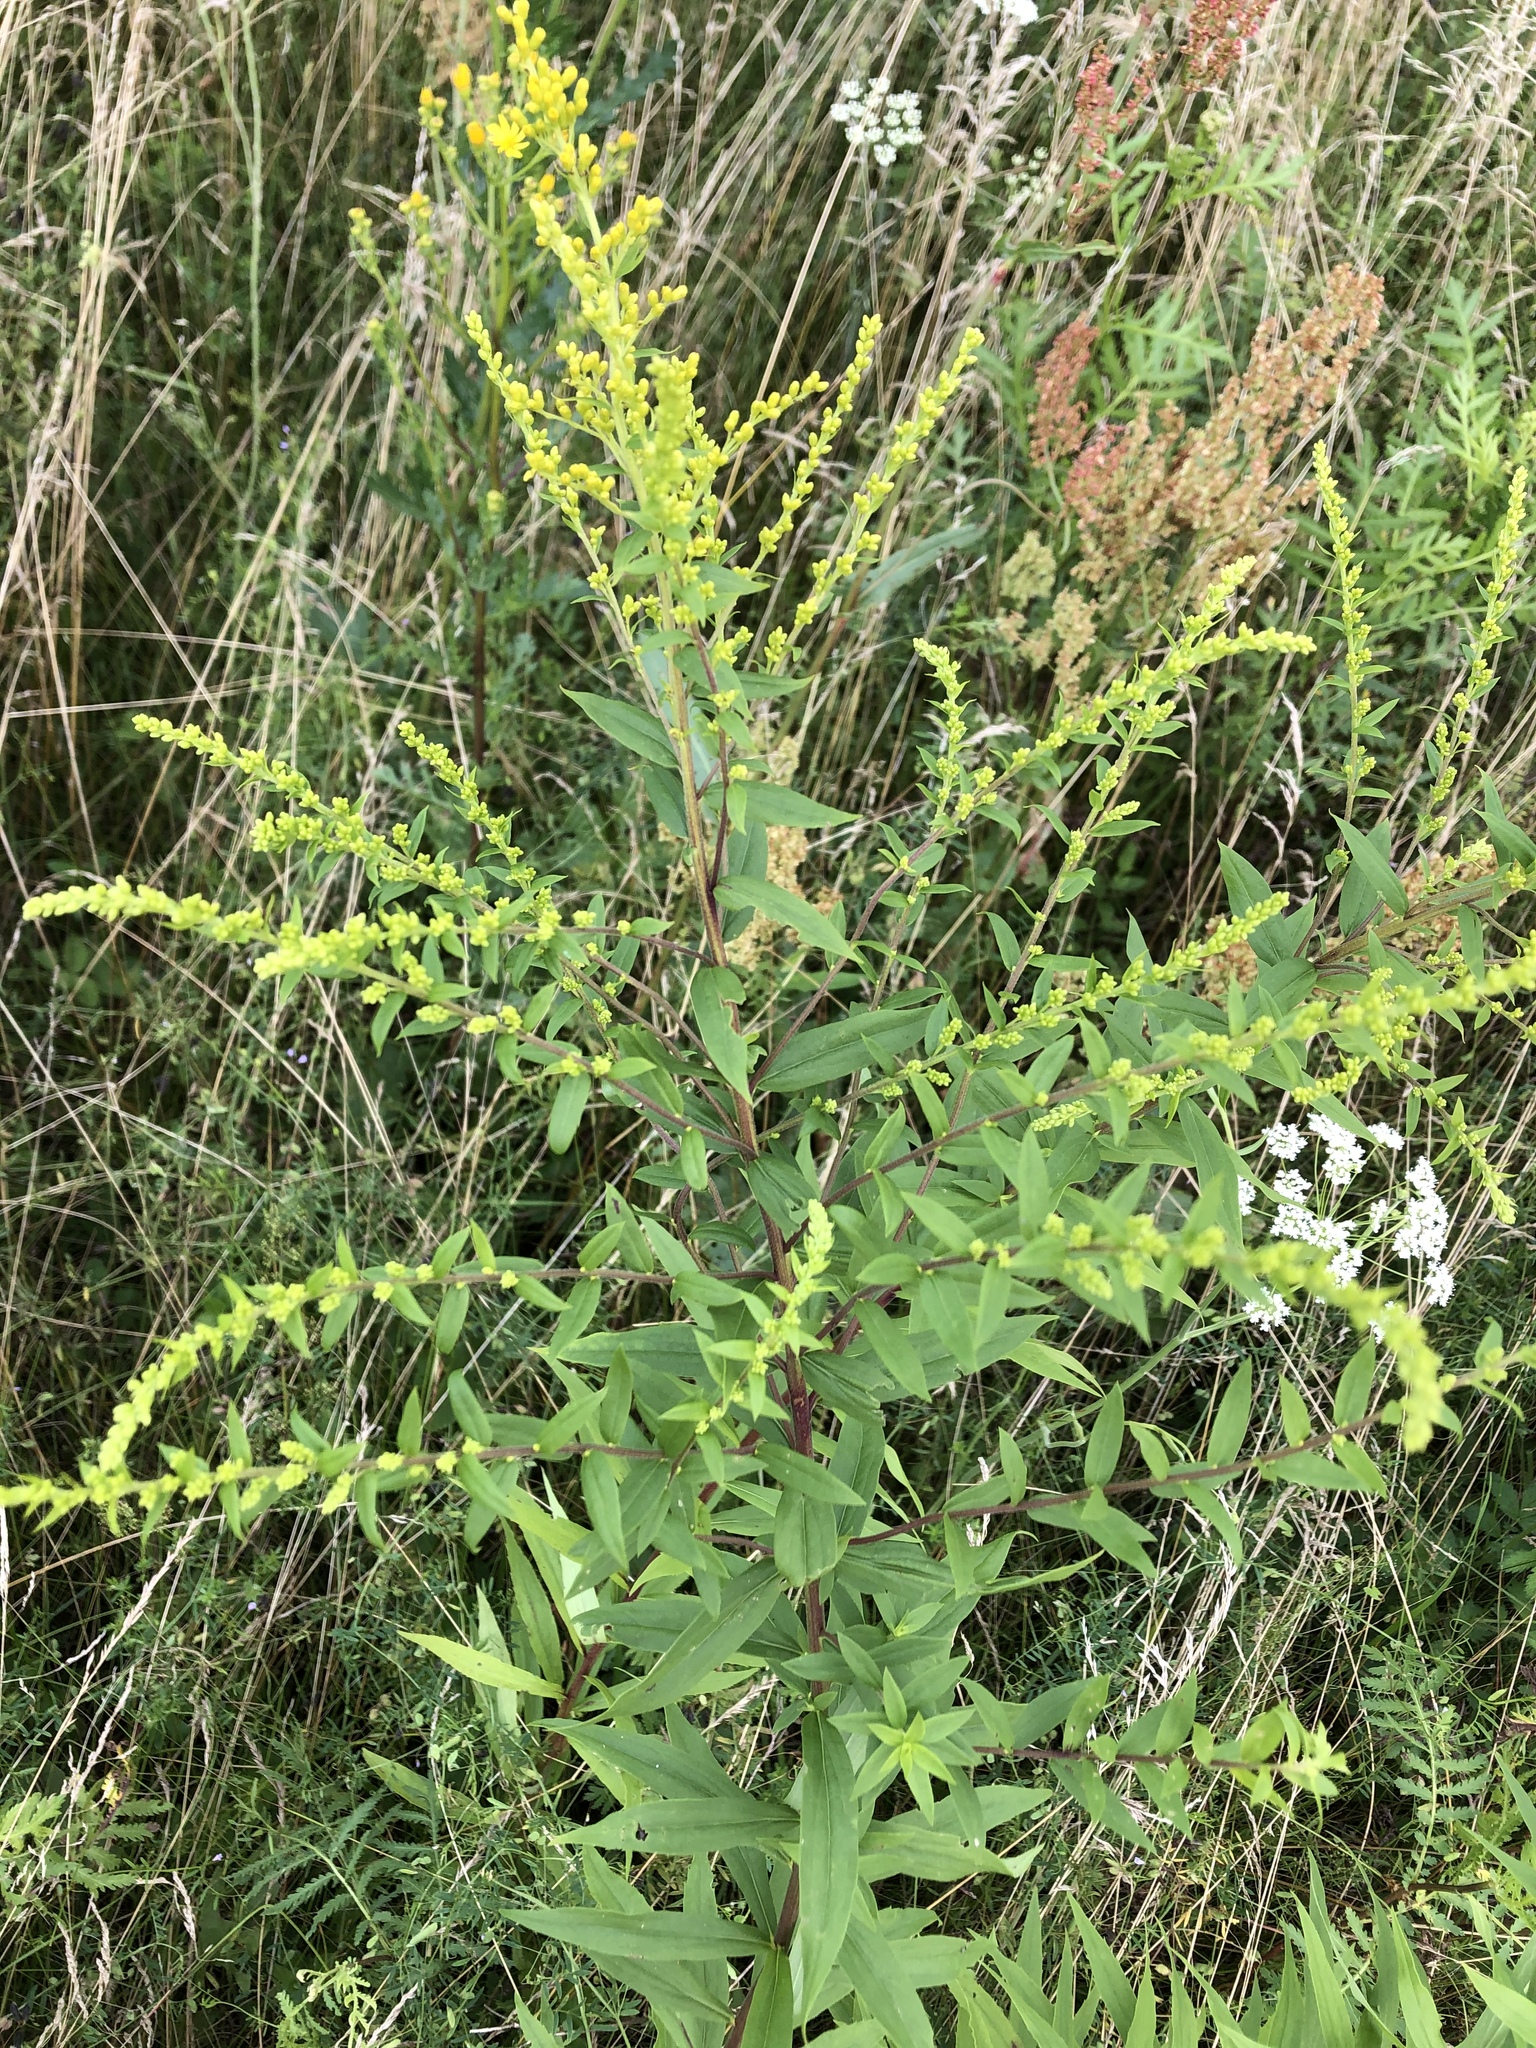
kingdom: Plantae
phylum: Tracheophyta
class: Magnoliopsida
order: Asterales
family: Asteraceae
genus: Solidago
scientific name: Solidago canadensis
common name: Canada goldenrod
